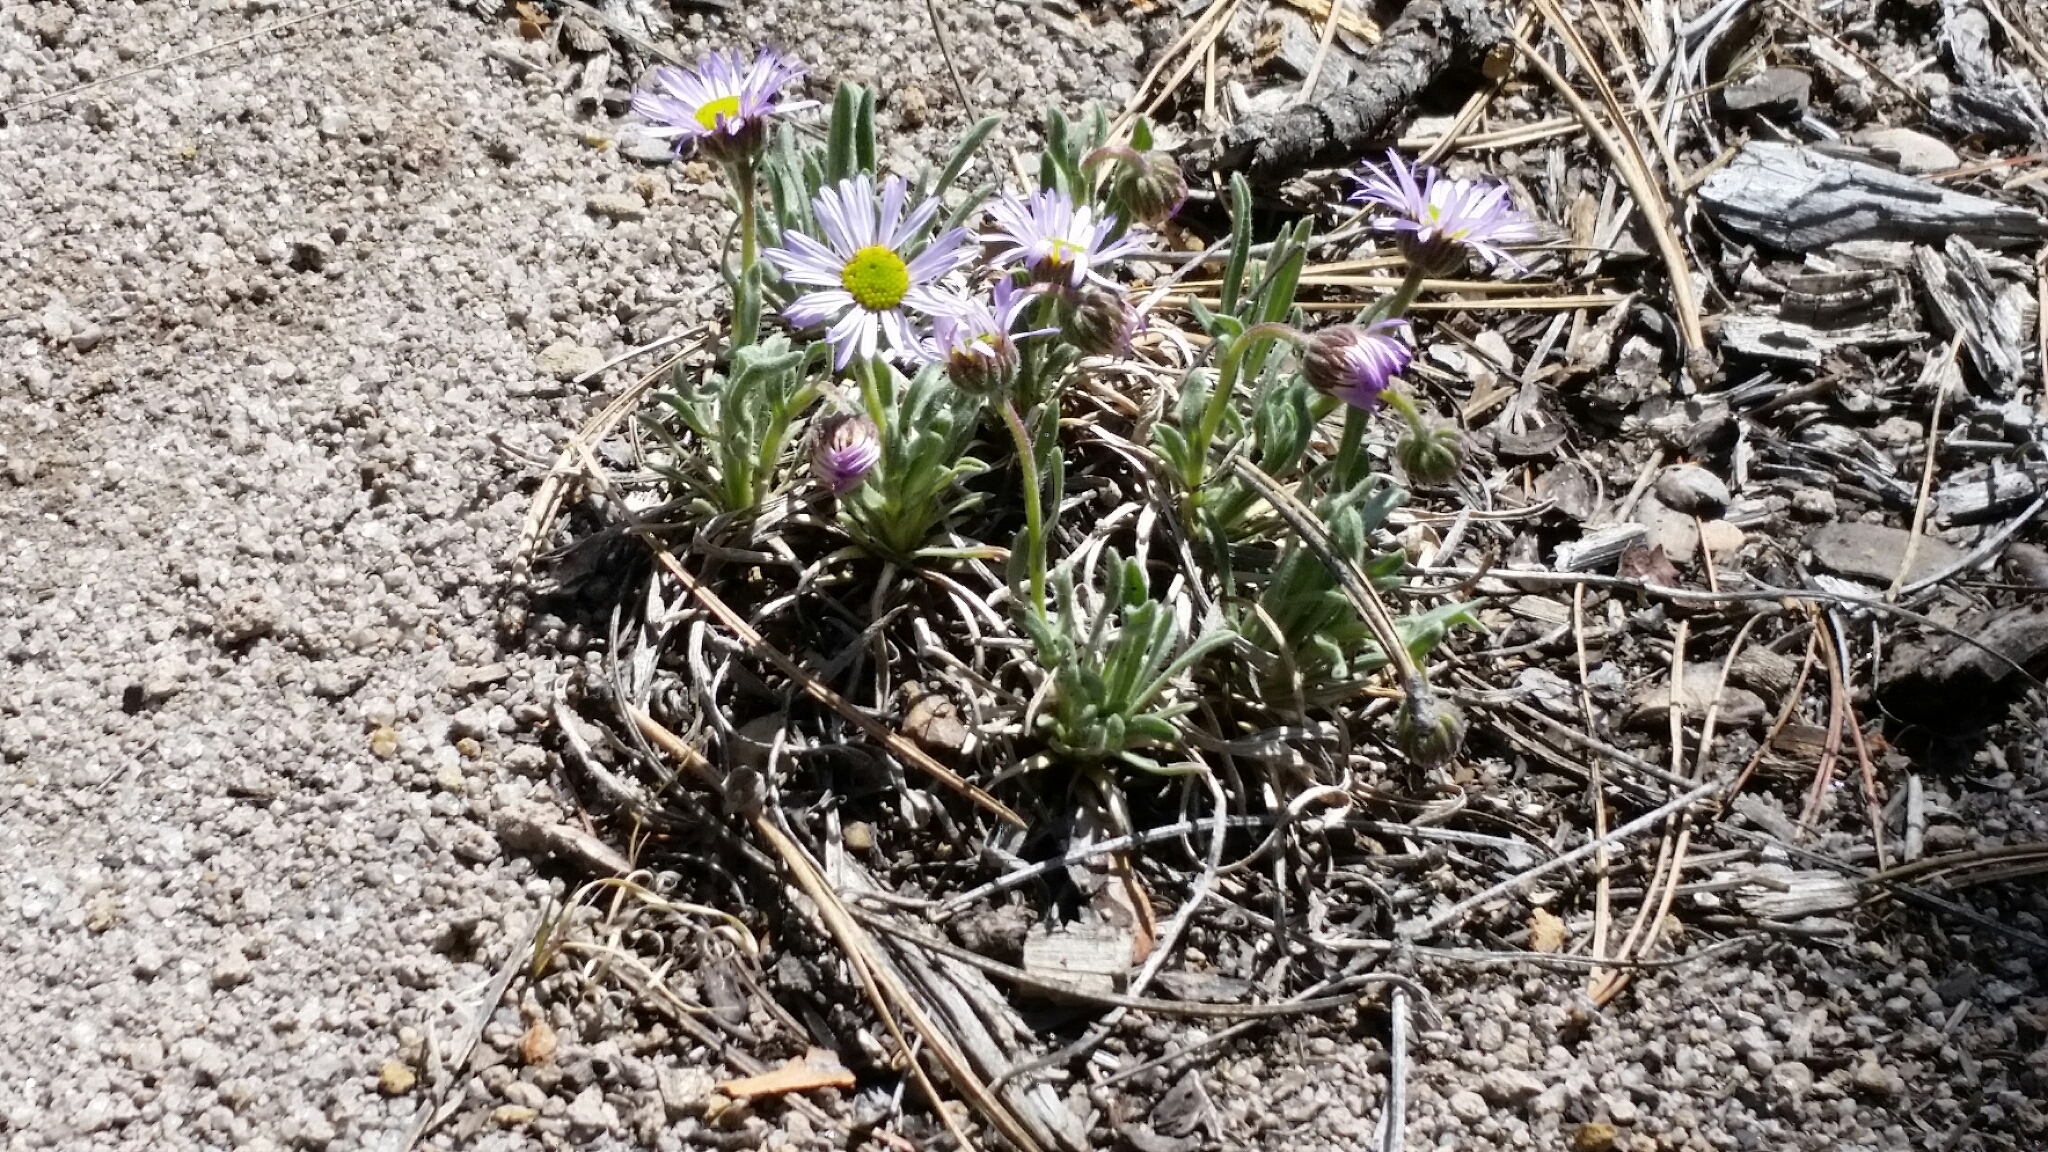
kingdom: Plantae
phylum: Tracheophyta
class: Magnoliopsida
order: Asterales
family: Asteraceae
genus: Erigeron
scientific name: Erigeron vetensis
